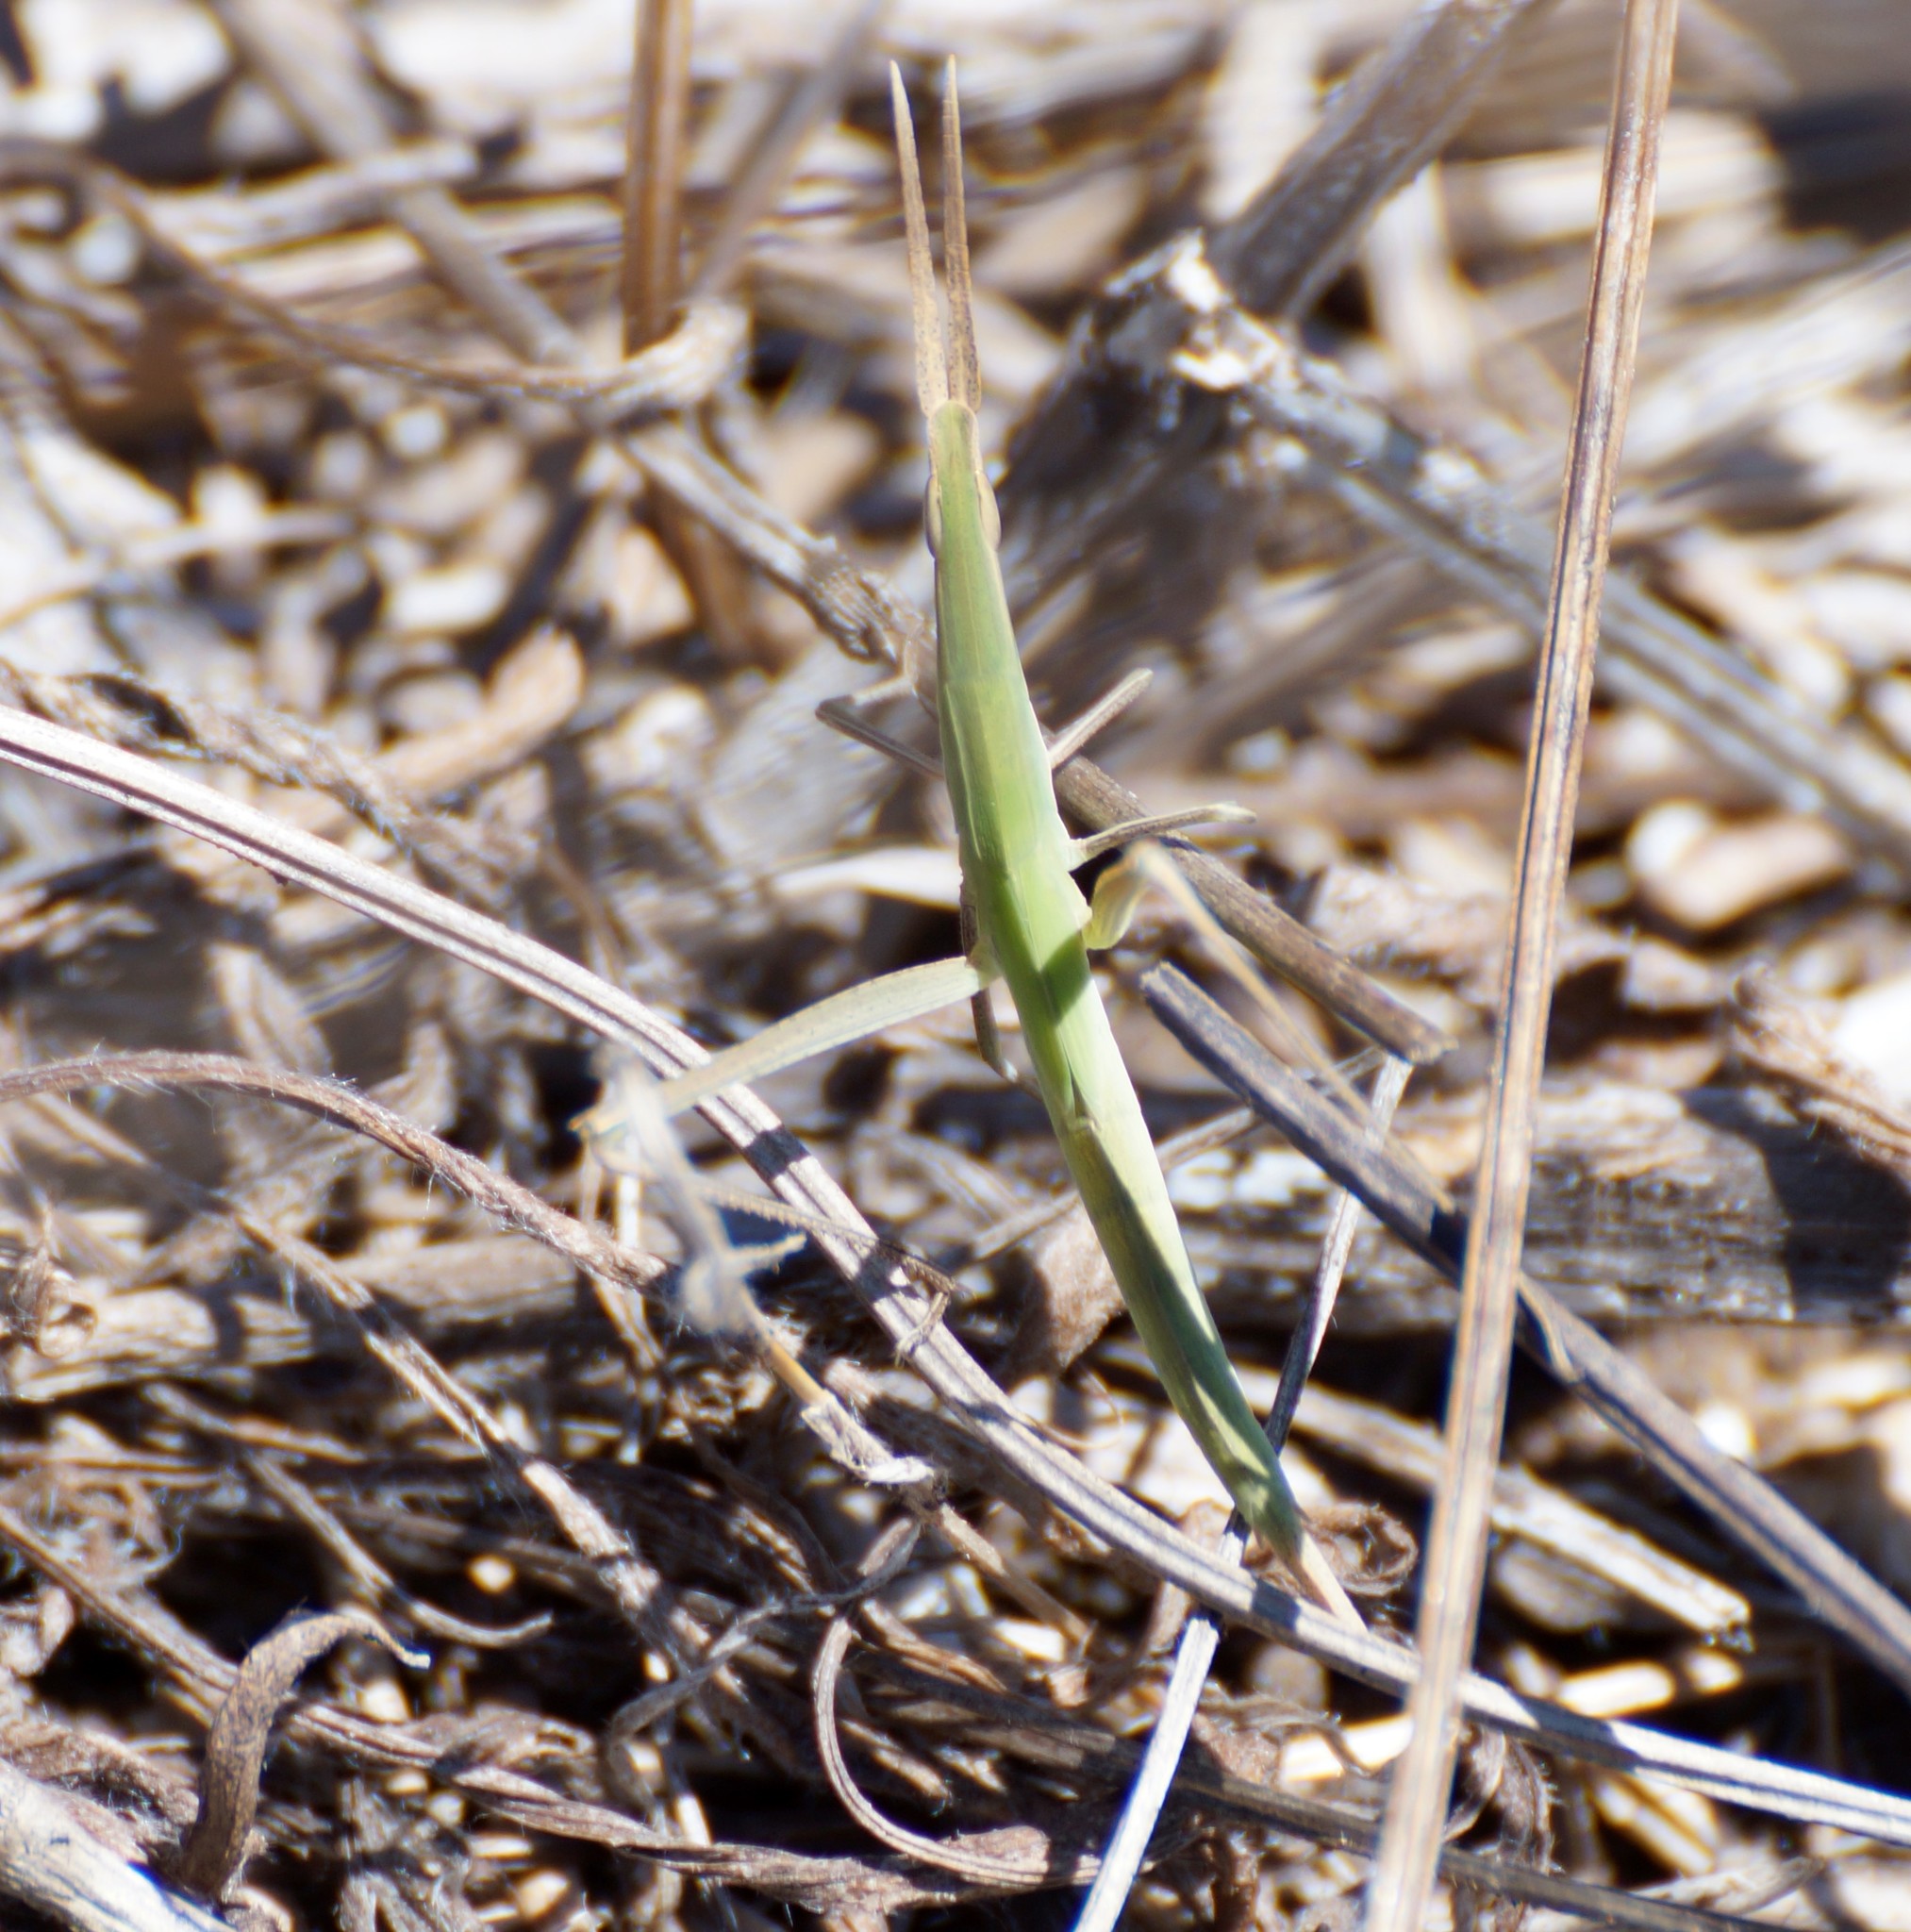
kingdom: Animalia
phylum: Arthropoda
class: Insecta
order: Orthoptera
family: Acrididae
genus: Acrida
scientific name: Acrida conica
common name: Giant green slantface
